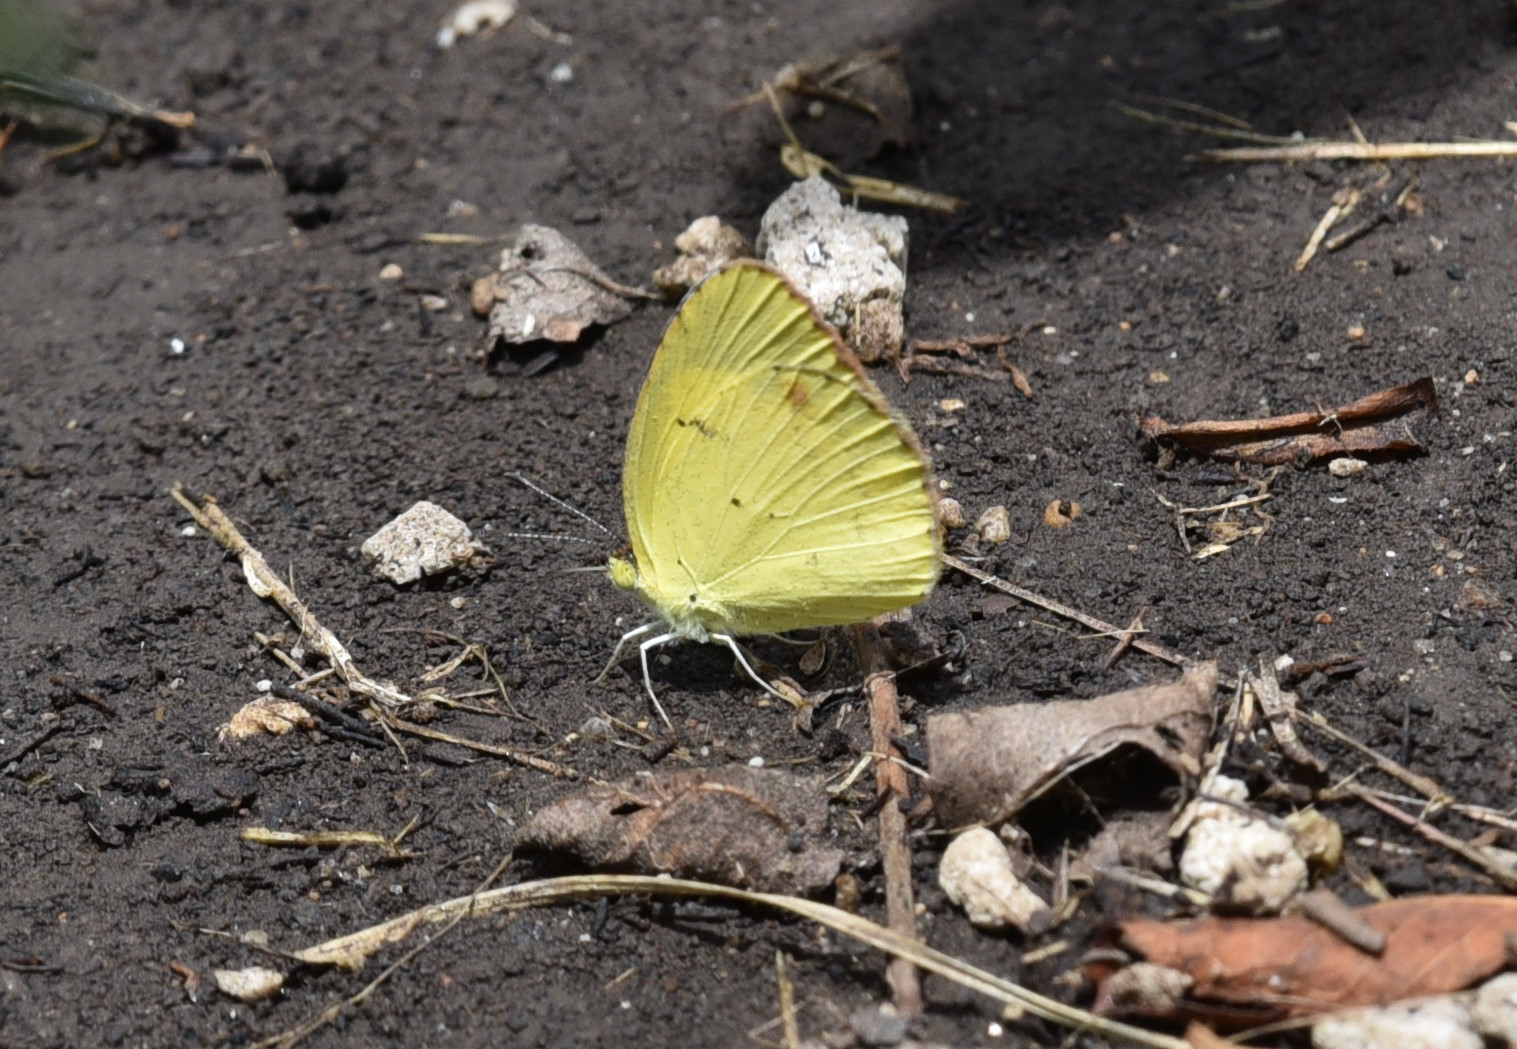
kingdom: Animalia
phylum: Arthropoda
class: Insecta
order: Lepidoptera
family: Pieridae
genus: Pyrisitia
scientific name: Pyrisitia lisa
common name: Little yellow
